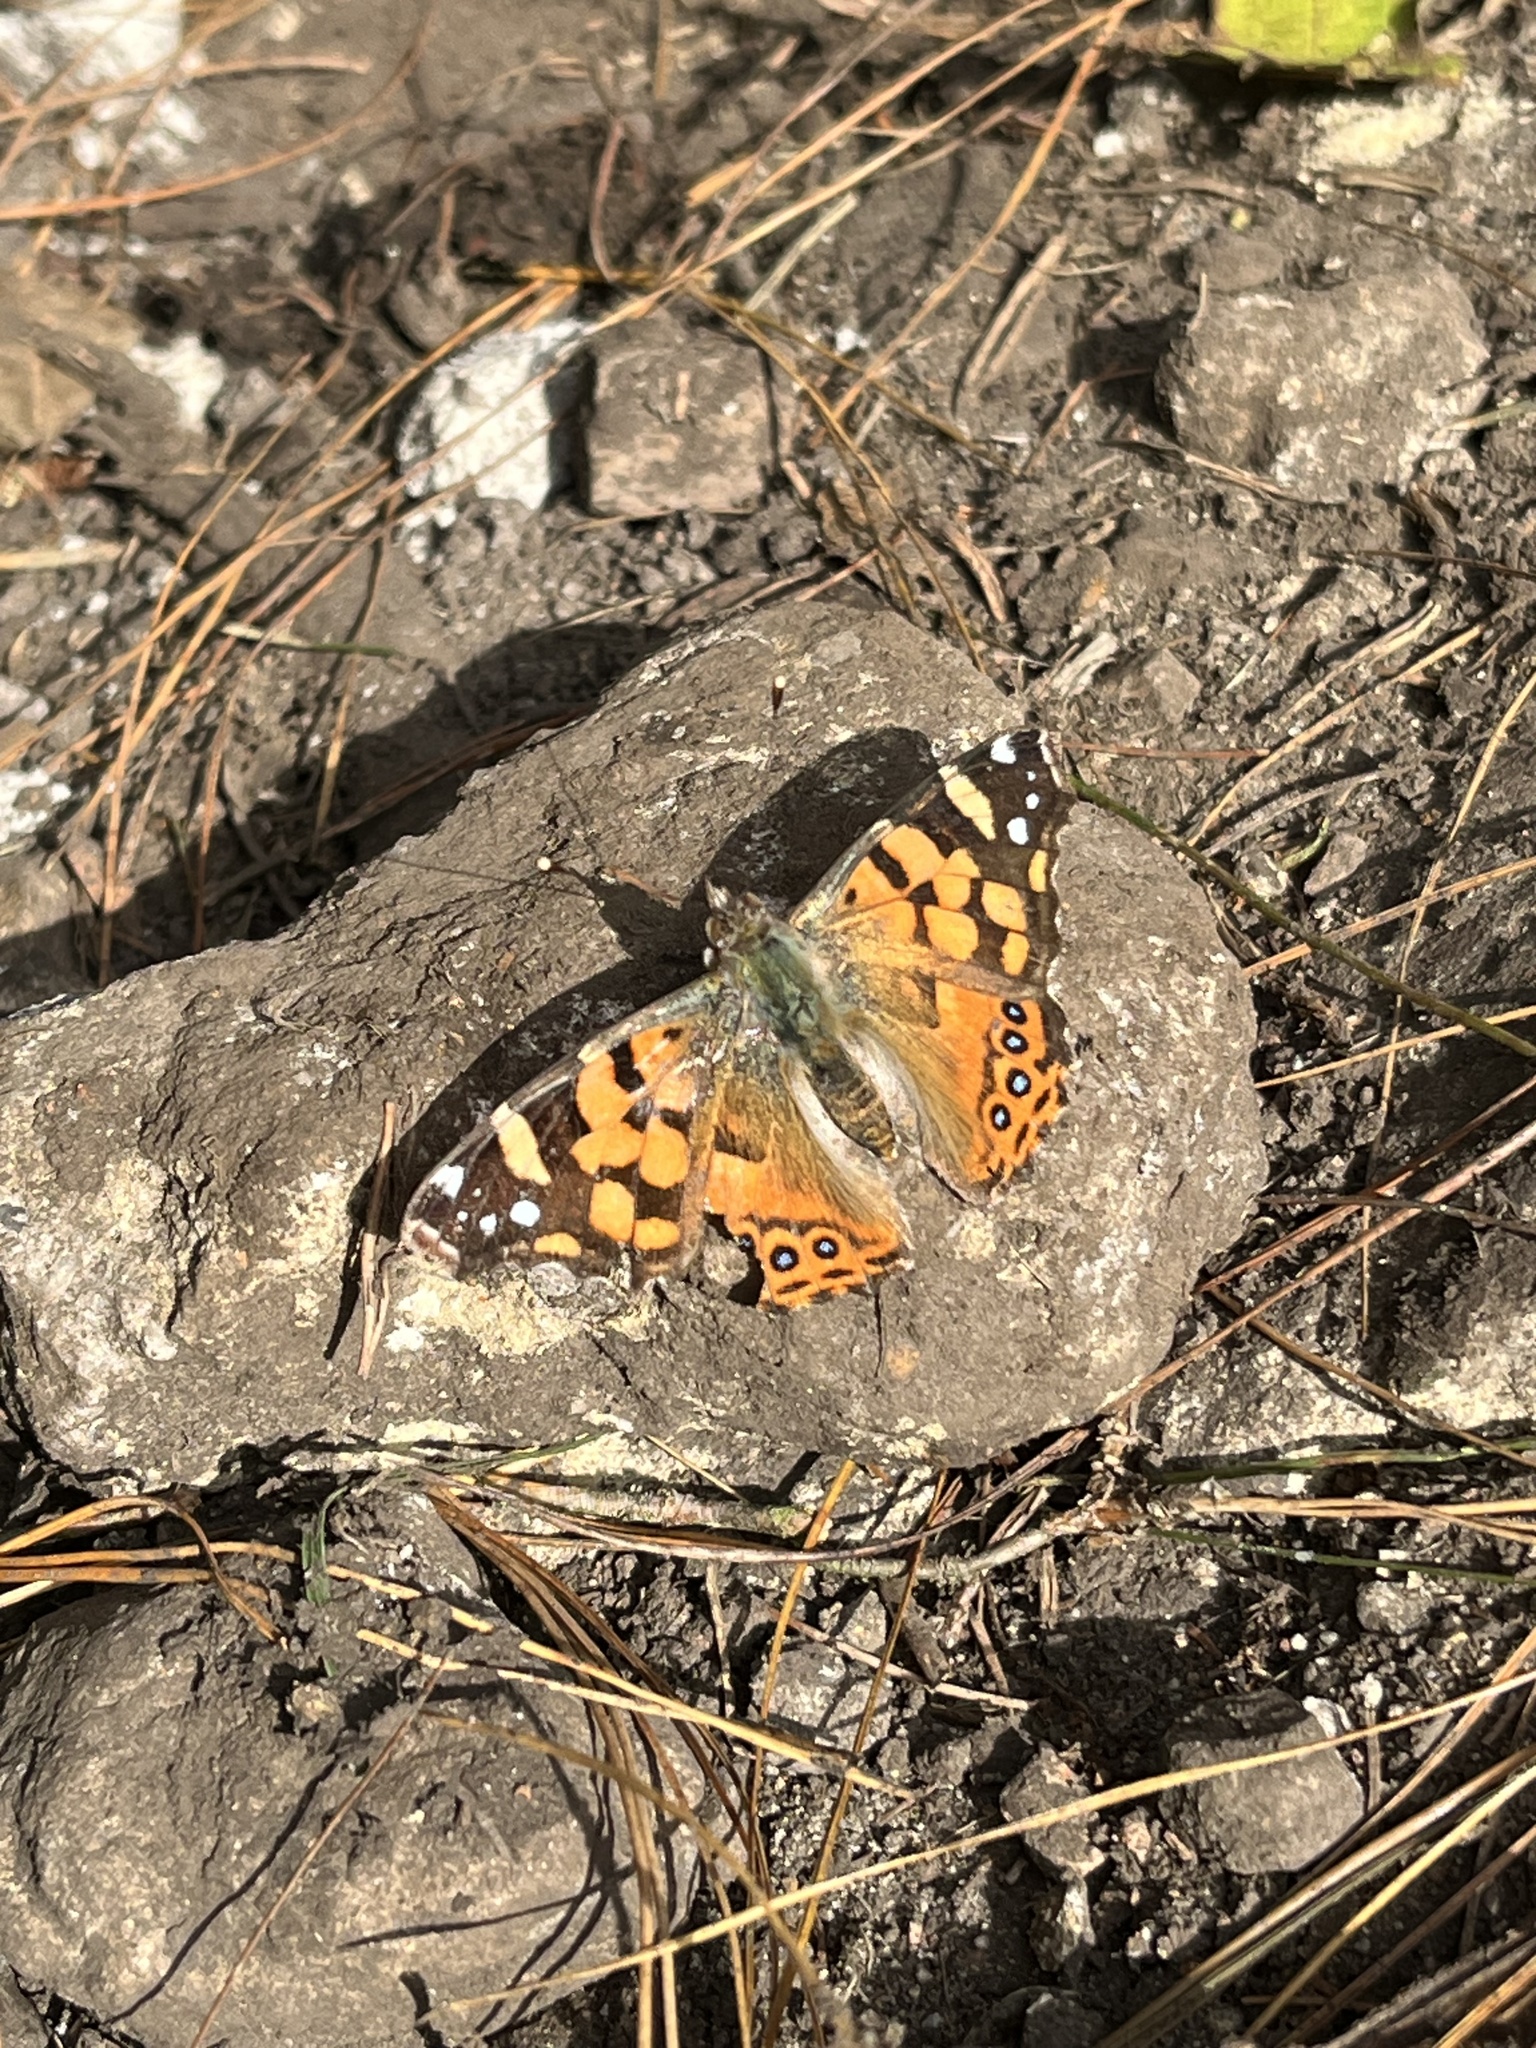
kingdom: Animalia
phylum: Arthropoda
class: Insecta
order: Lepidoptera
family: Nymphalidae
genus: Vanessa
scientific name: Vanessa carye
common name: Subtropical lady
